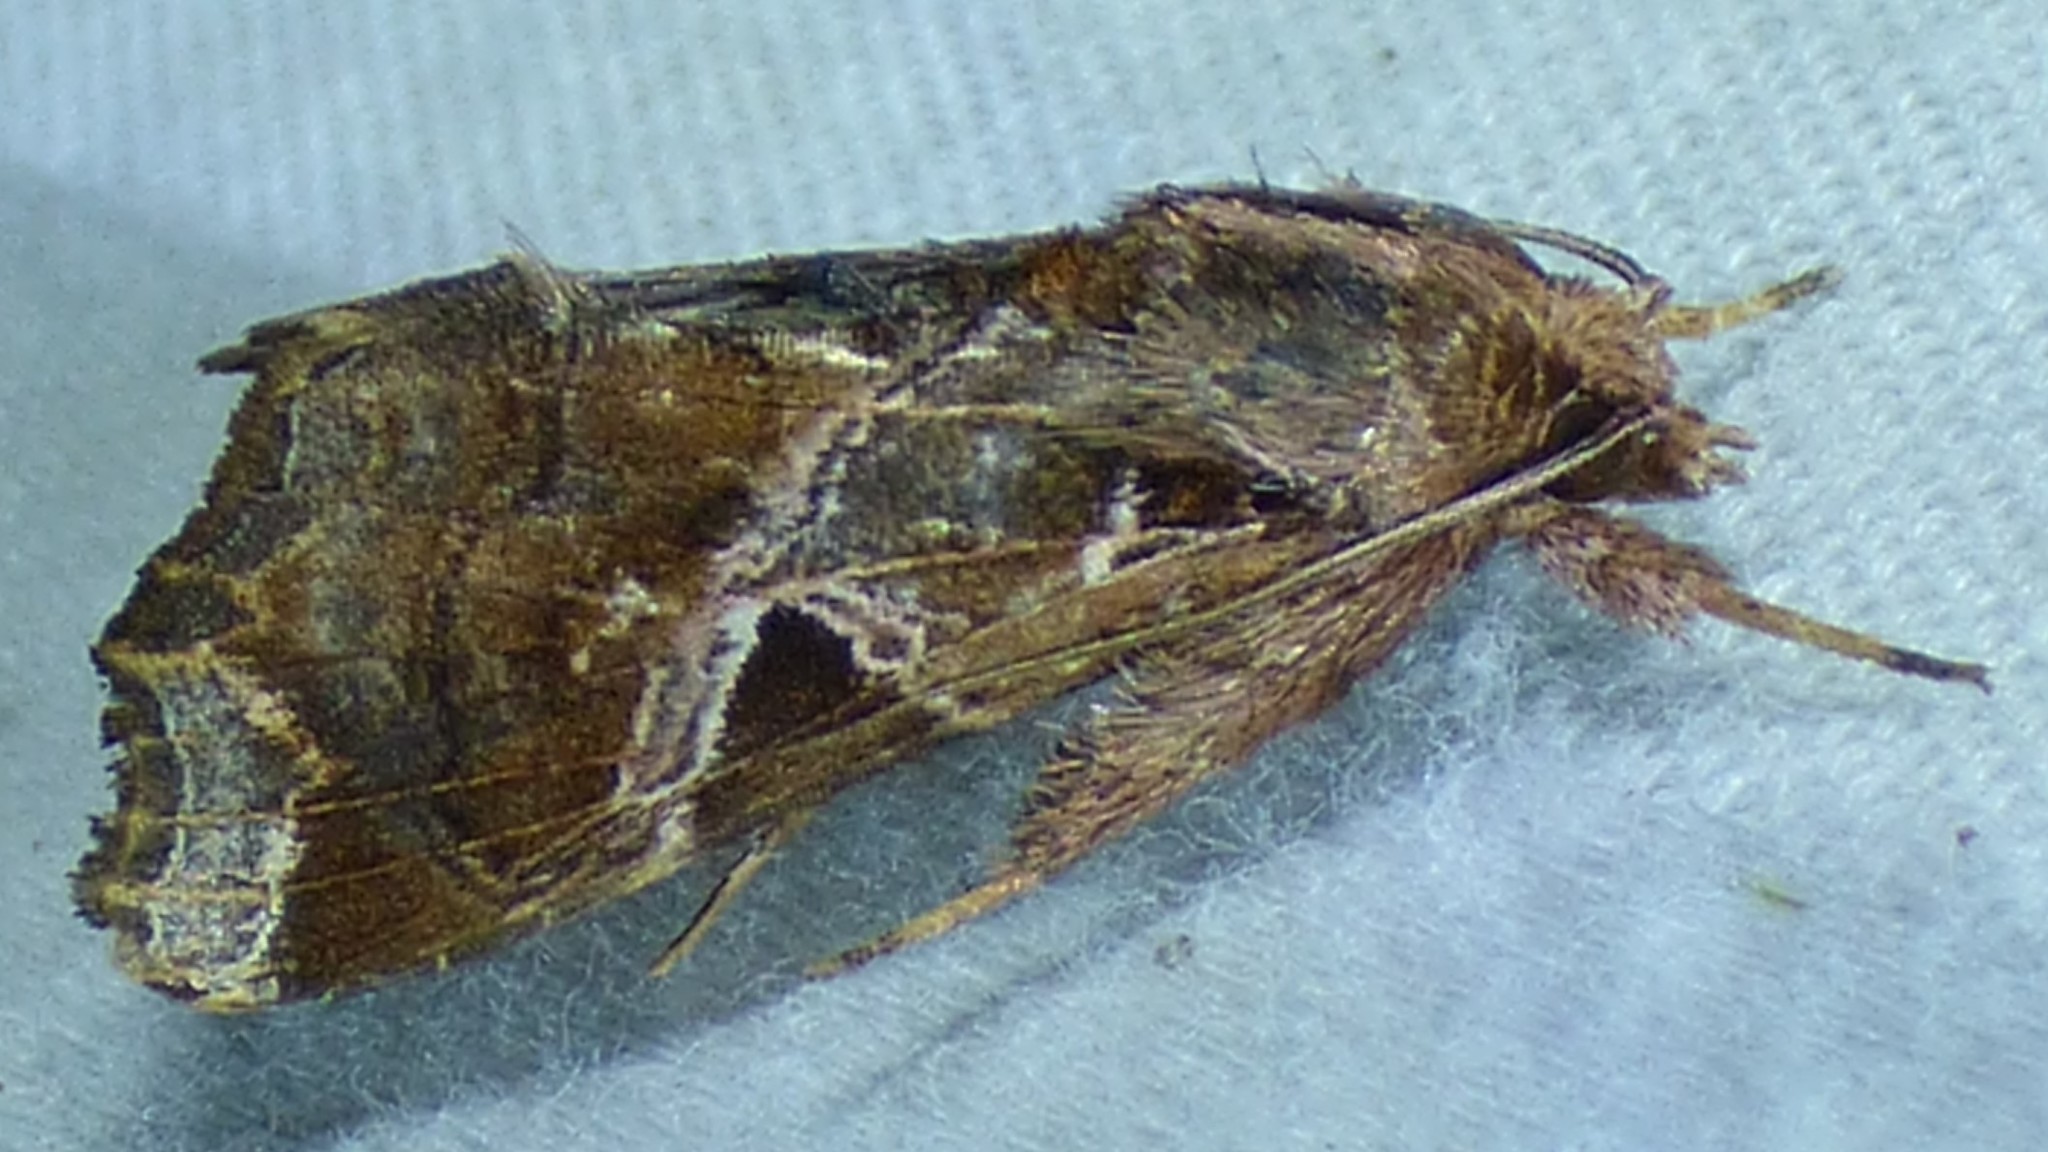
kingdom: Animalia
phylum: Arthropoda
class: Insecta
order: Lepidoptera
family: Noctuidae
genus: Callopistria
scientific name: Callopistria floridensis
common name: Florida fern moth
